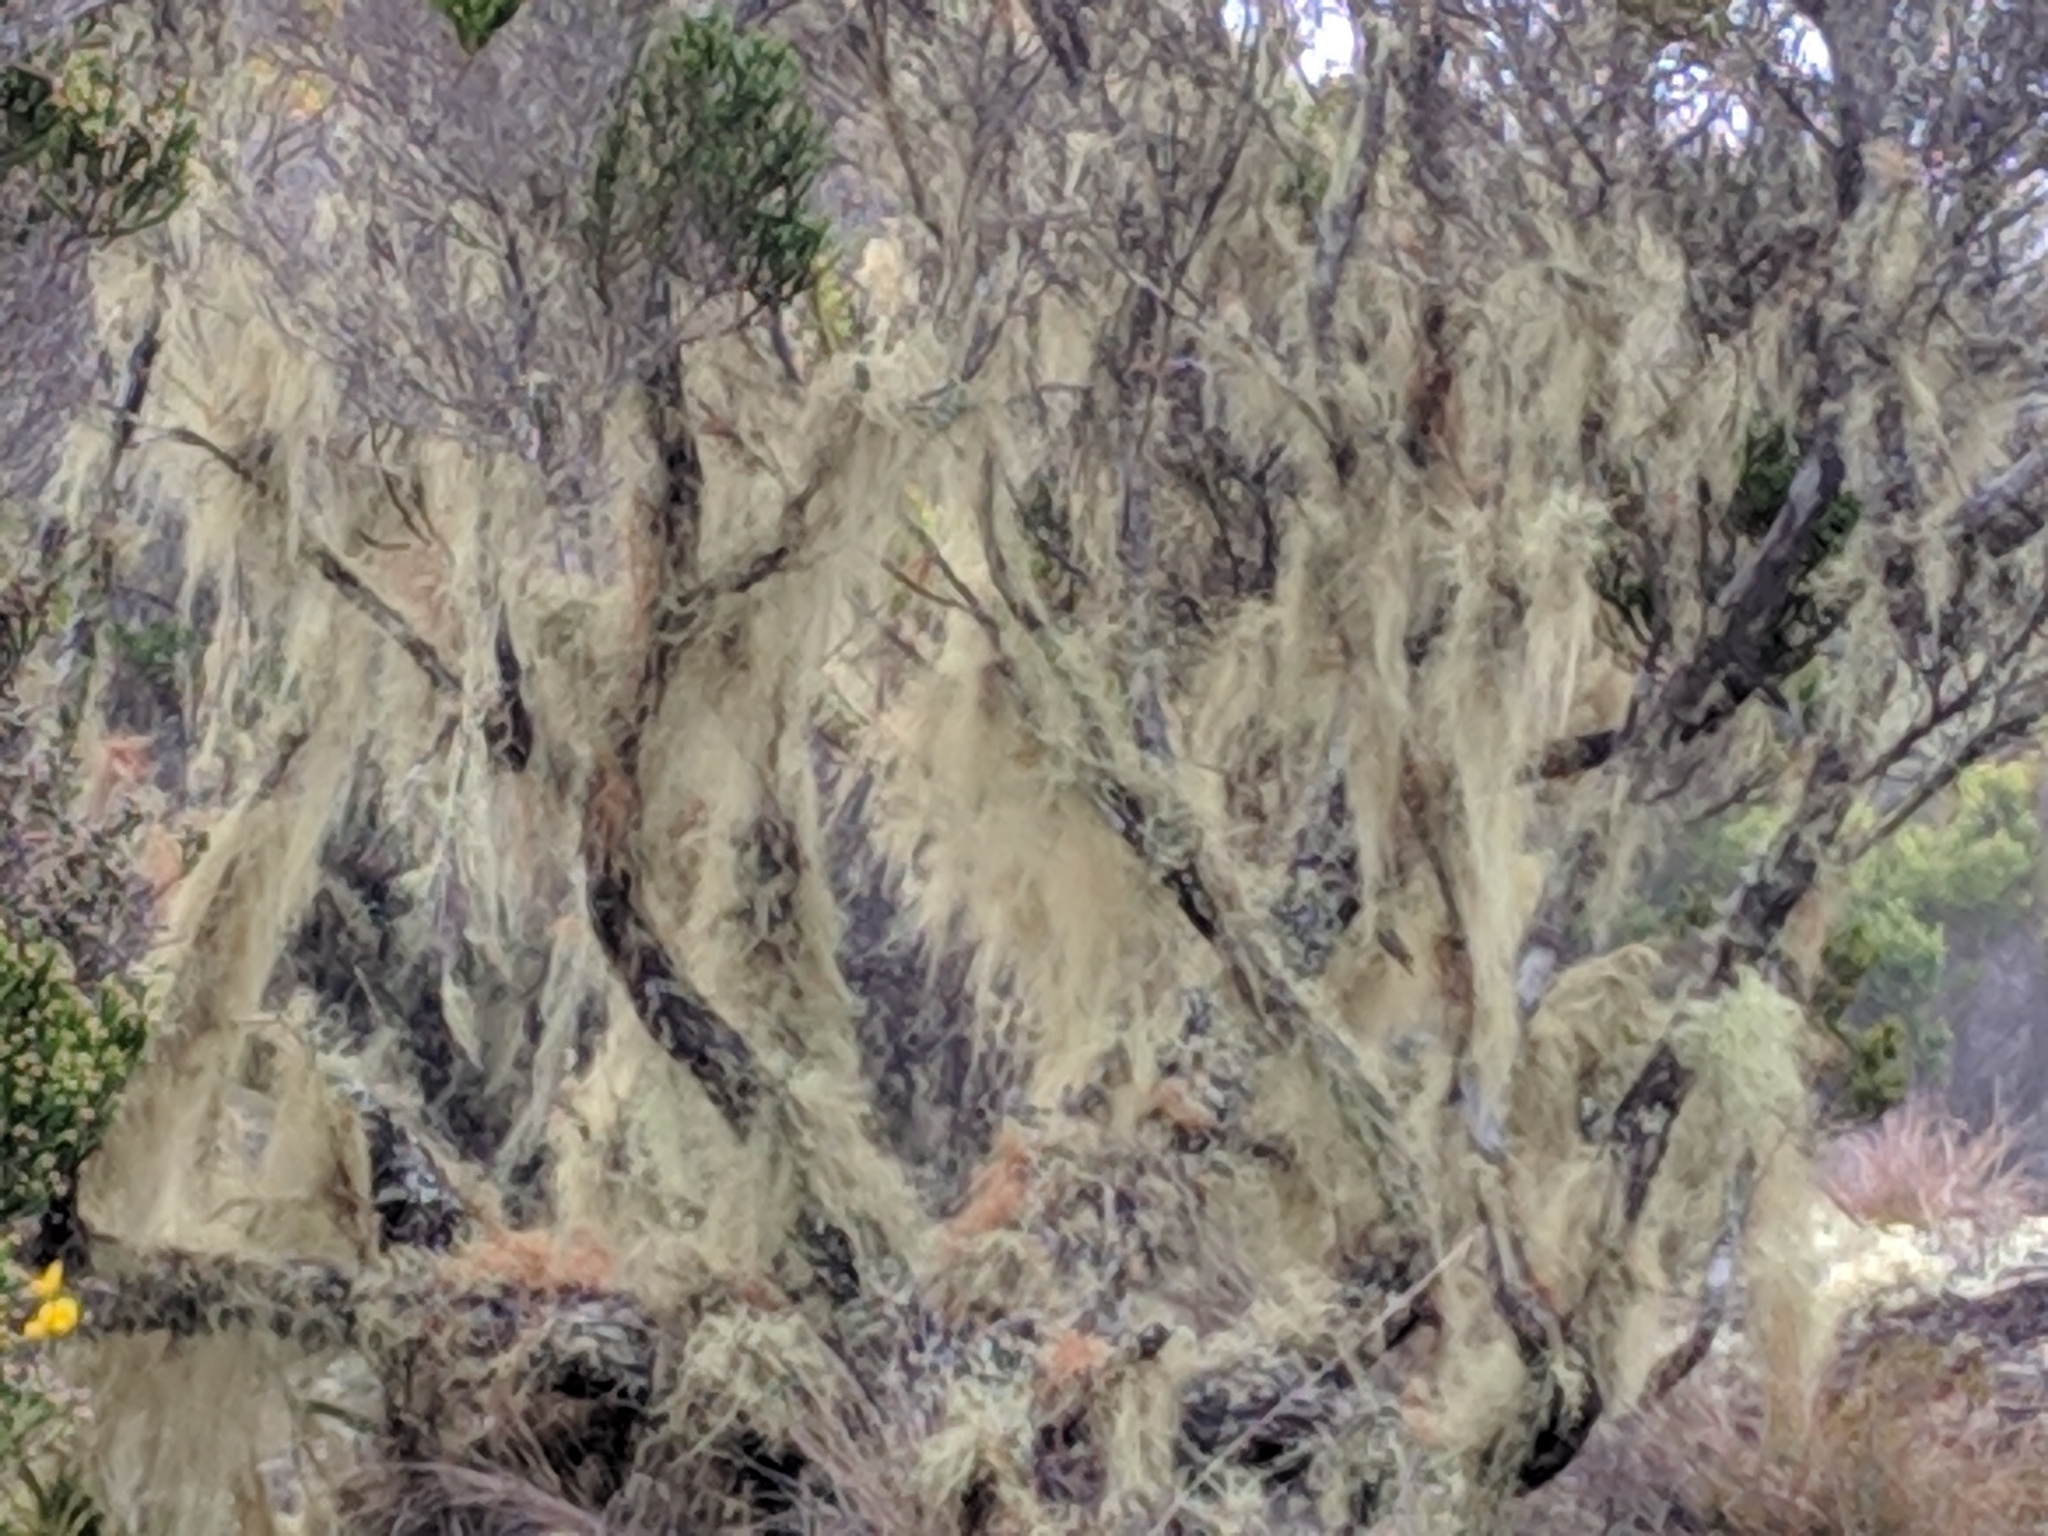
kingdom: Fungi
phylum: Ascomycota
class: Lecanoromycetes
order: Lecanorales
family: Parmeliaceae
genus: Usnea
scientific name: Usnea barbata
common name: Old man's beard lichen
